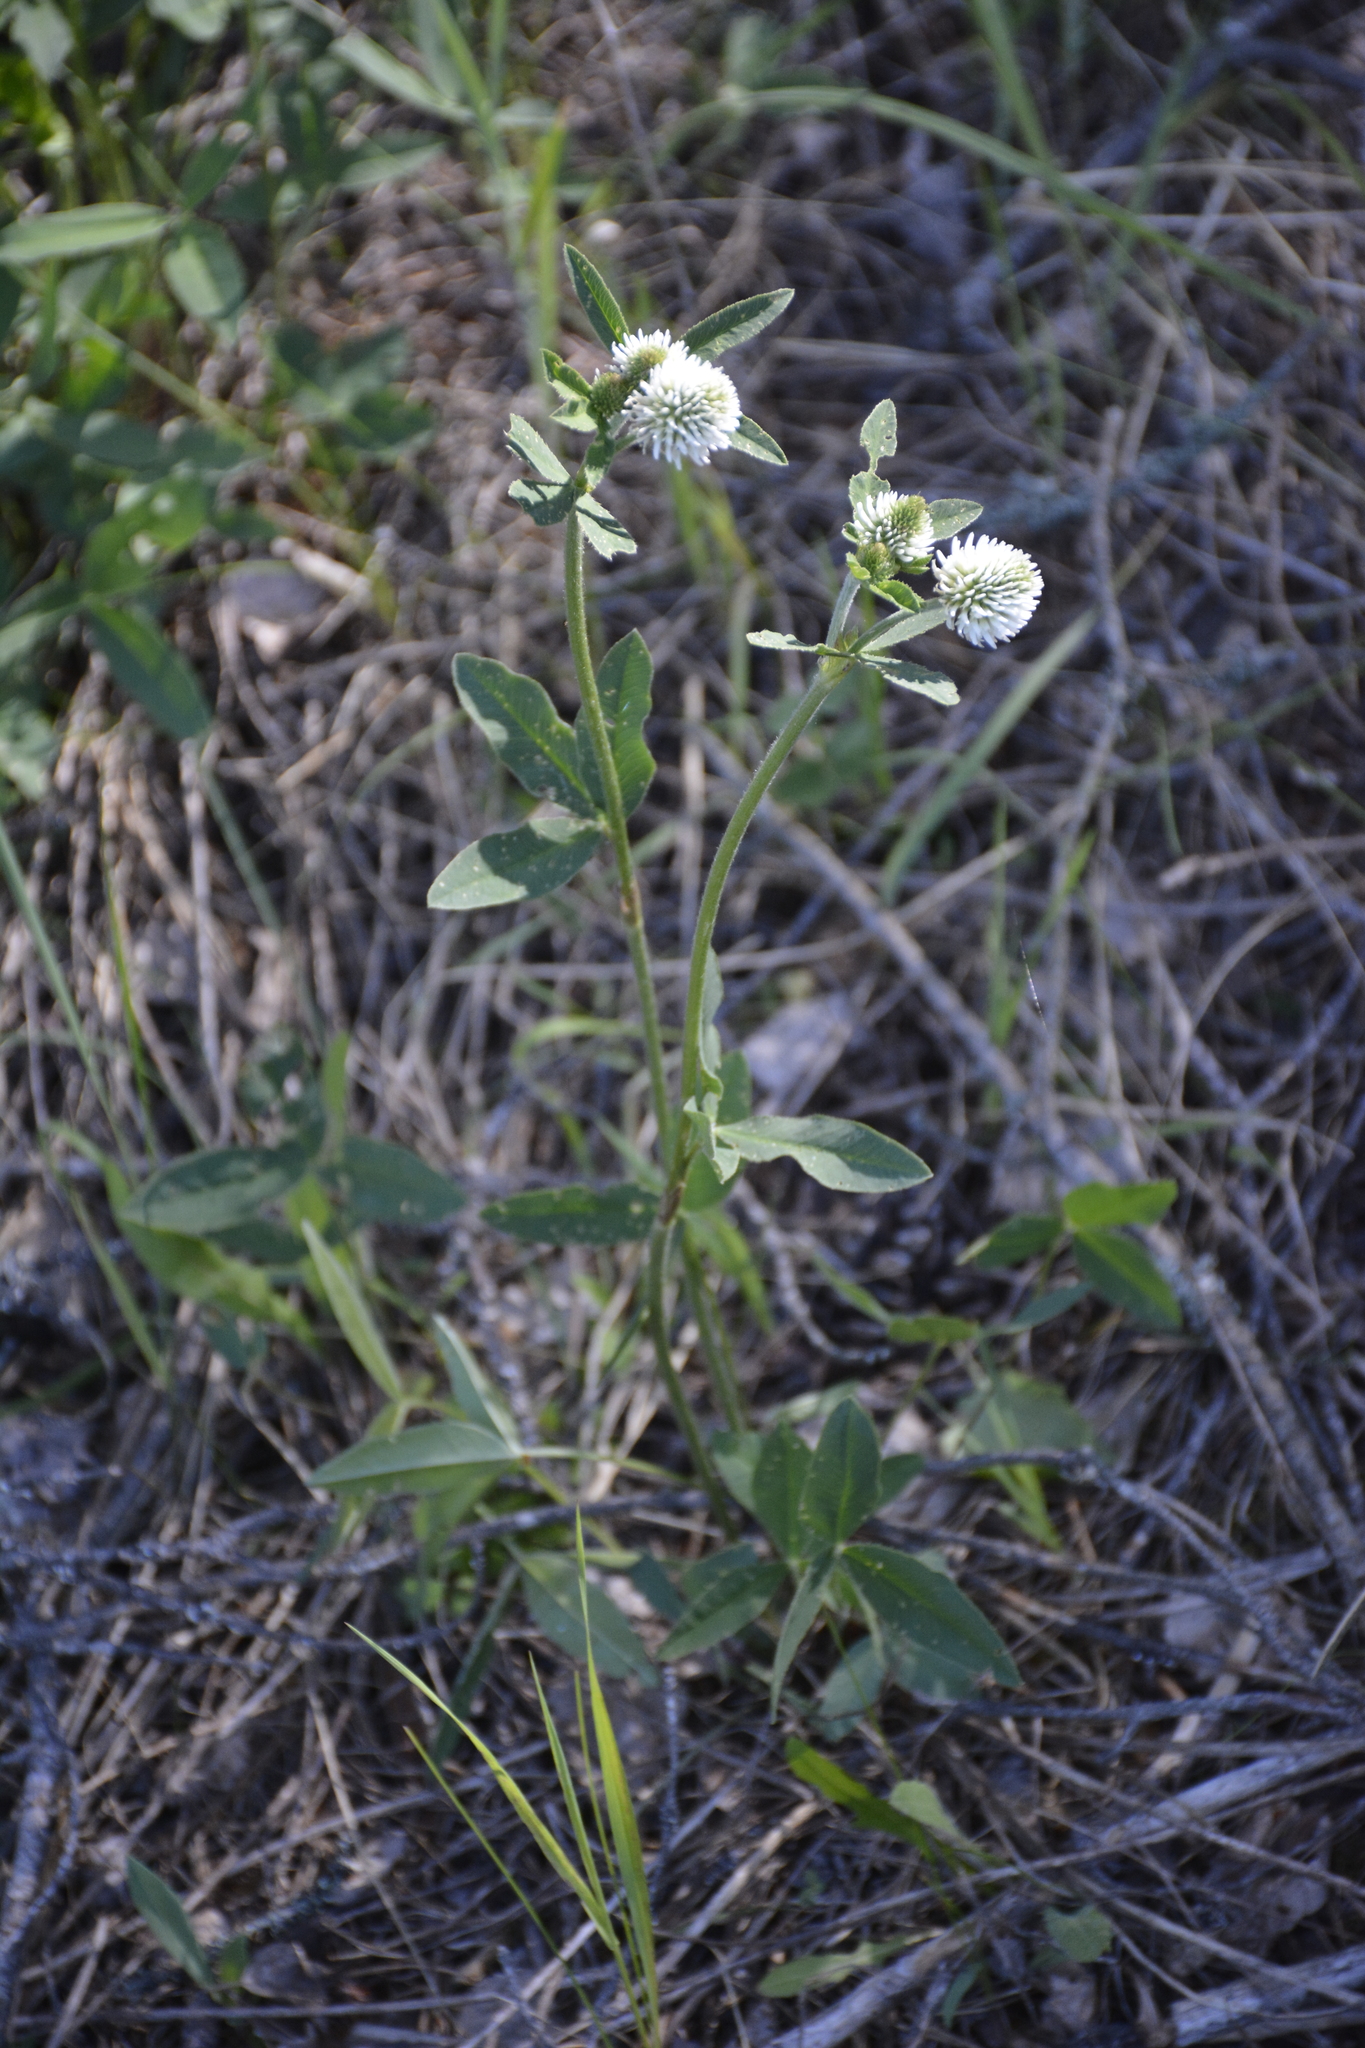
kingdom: Plantae
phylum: Tracheophyta
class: Magnoliopsida
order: Fabales
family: Fabaceae
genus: Trifolium
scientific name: Trifolium montanum
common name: Mountain clover
